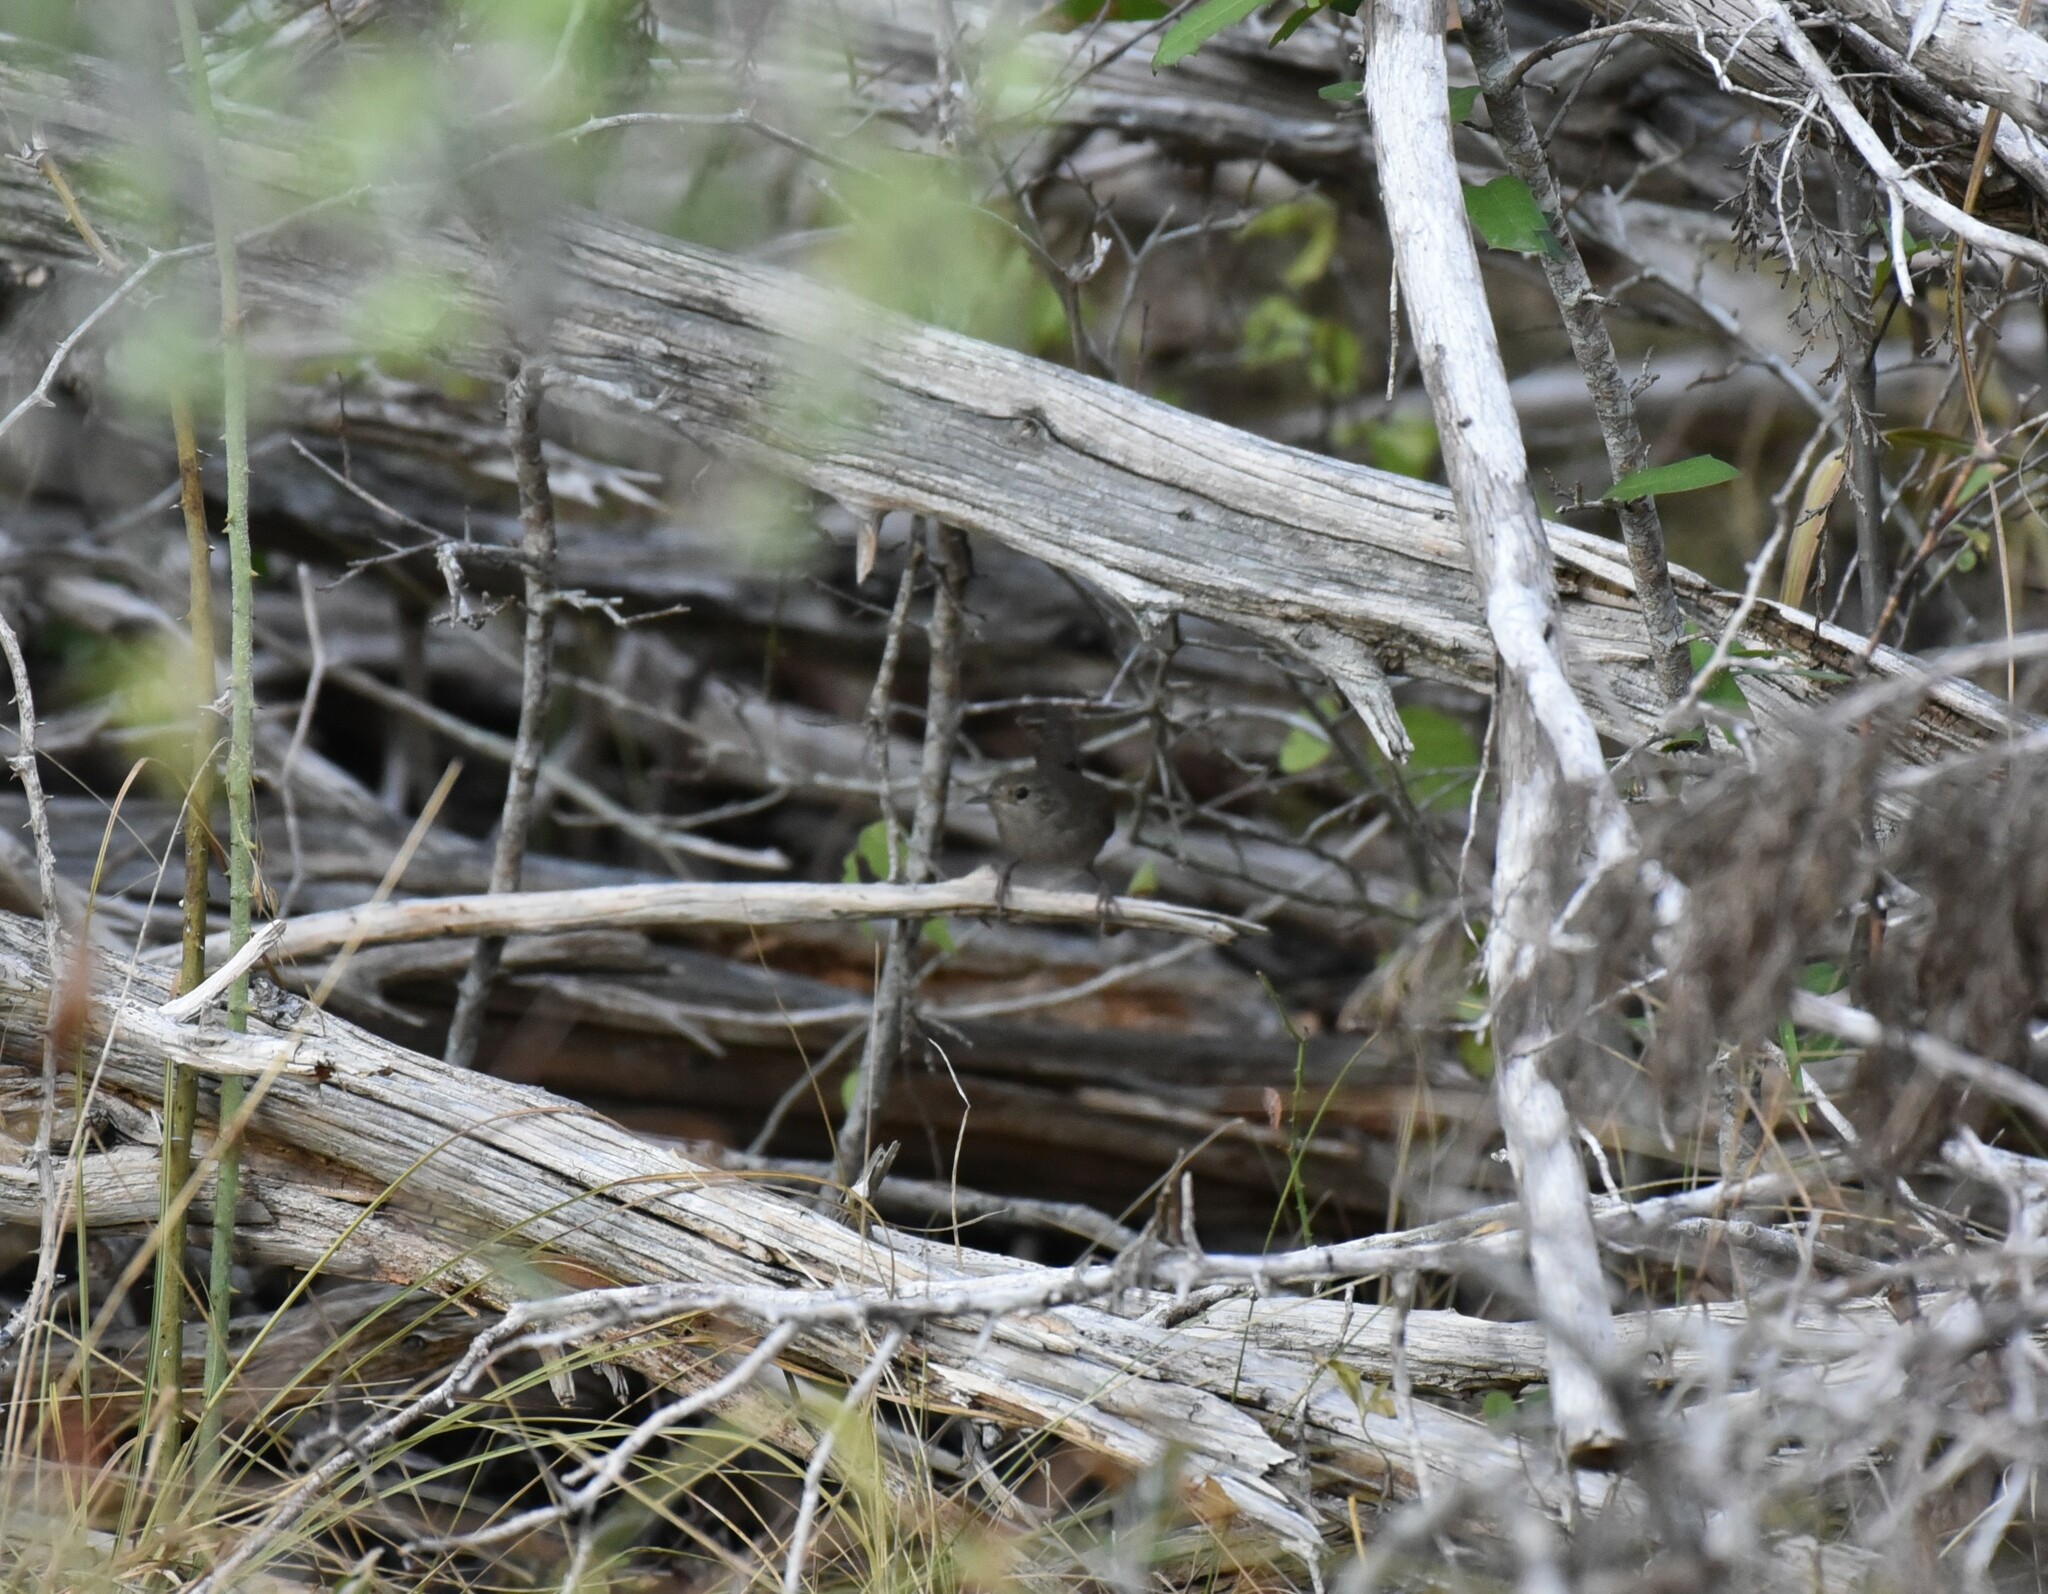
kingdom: Animalia
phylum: Chordata
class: Aves
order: Passeriformes
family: Troglodytidae
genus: Troglodytes
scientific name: Troglodytes aedon
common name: House wren
